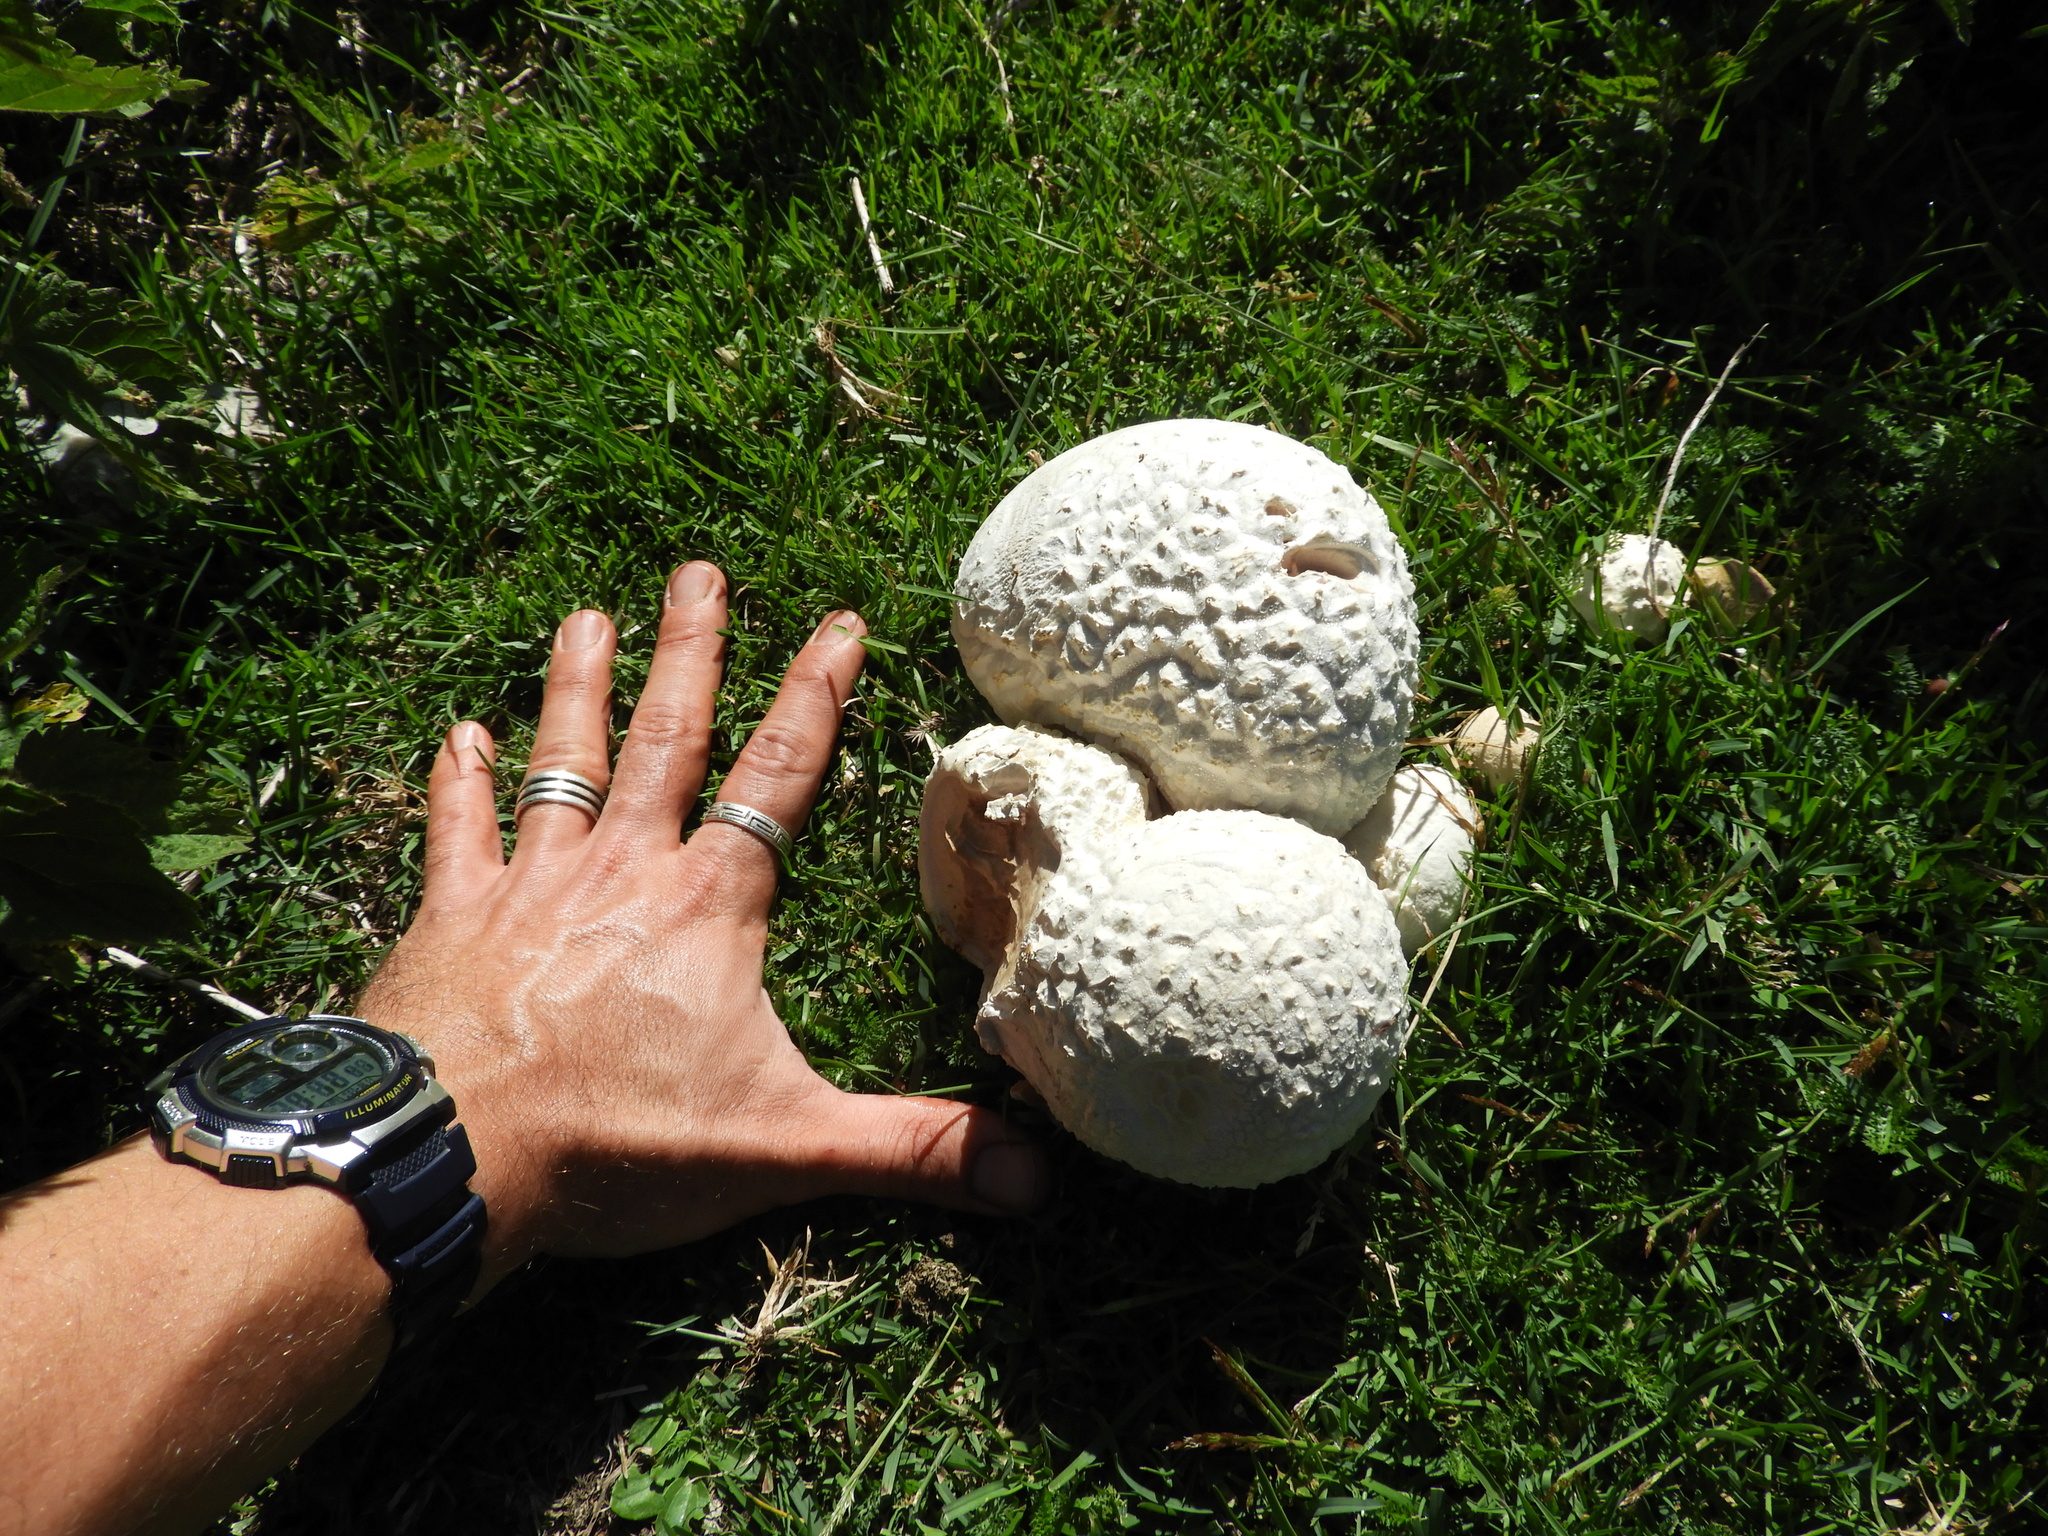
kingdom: Fungi
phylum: Basidiomycota
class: Agaricomycetes
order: Agaricales
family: Lycoperdaceae
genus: Bovistella
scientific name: Bovistella utriformis
